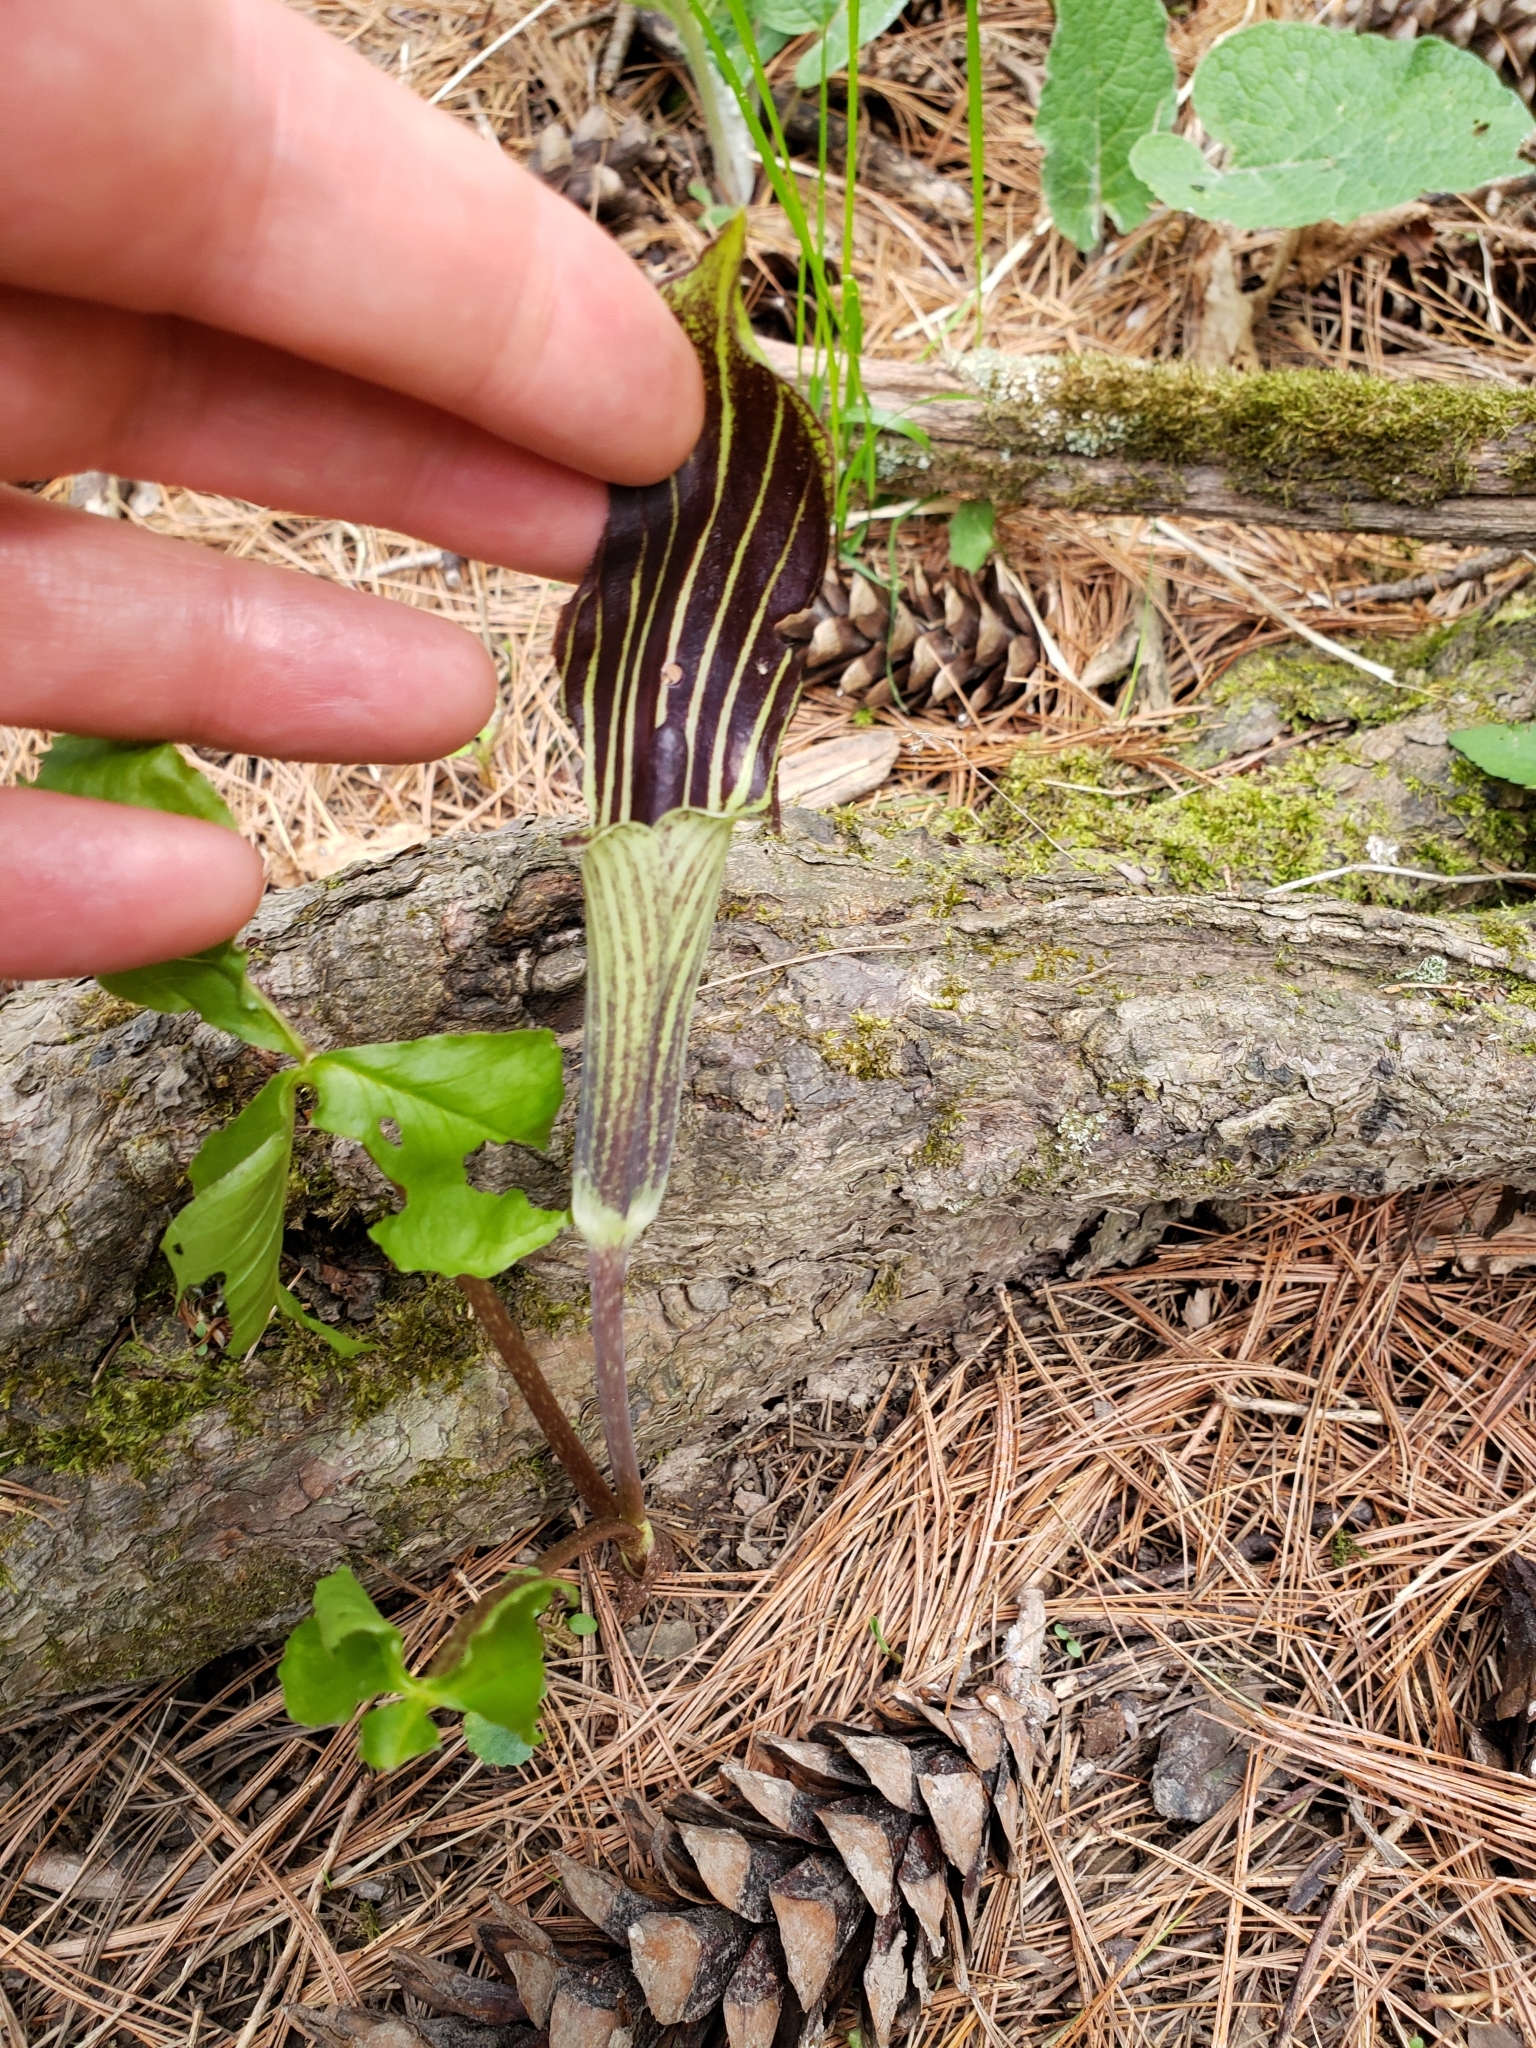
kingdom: Plantae
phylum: Tracheophyta
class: Liliopsida
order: Alismatales
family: Araceae
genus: Arisaema
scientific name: Arisaema triphyllum
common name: Jack-in-the-pulpit
